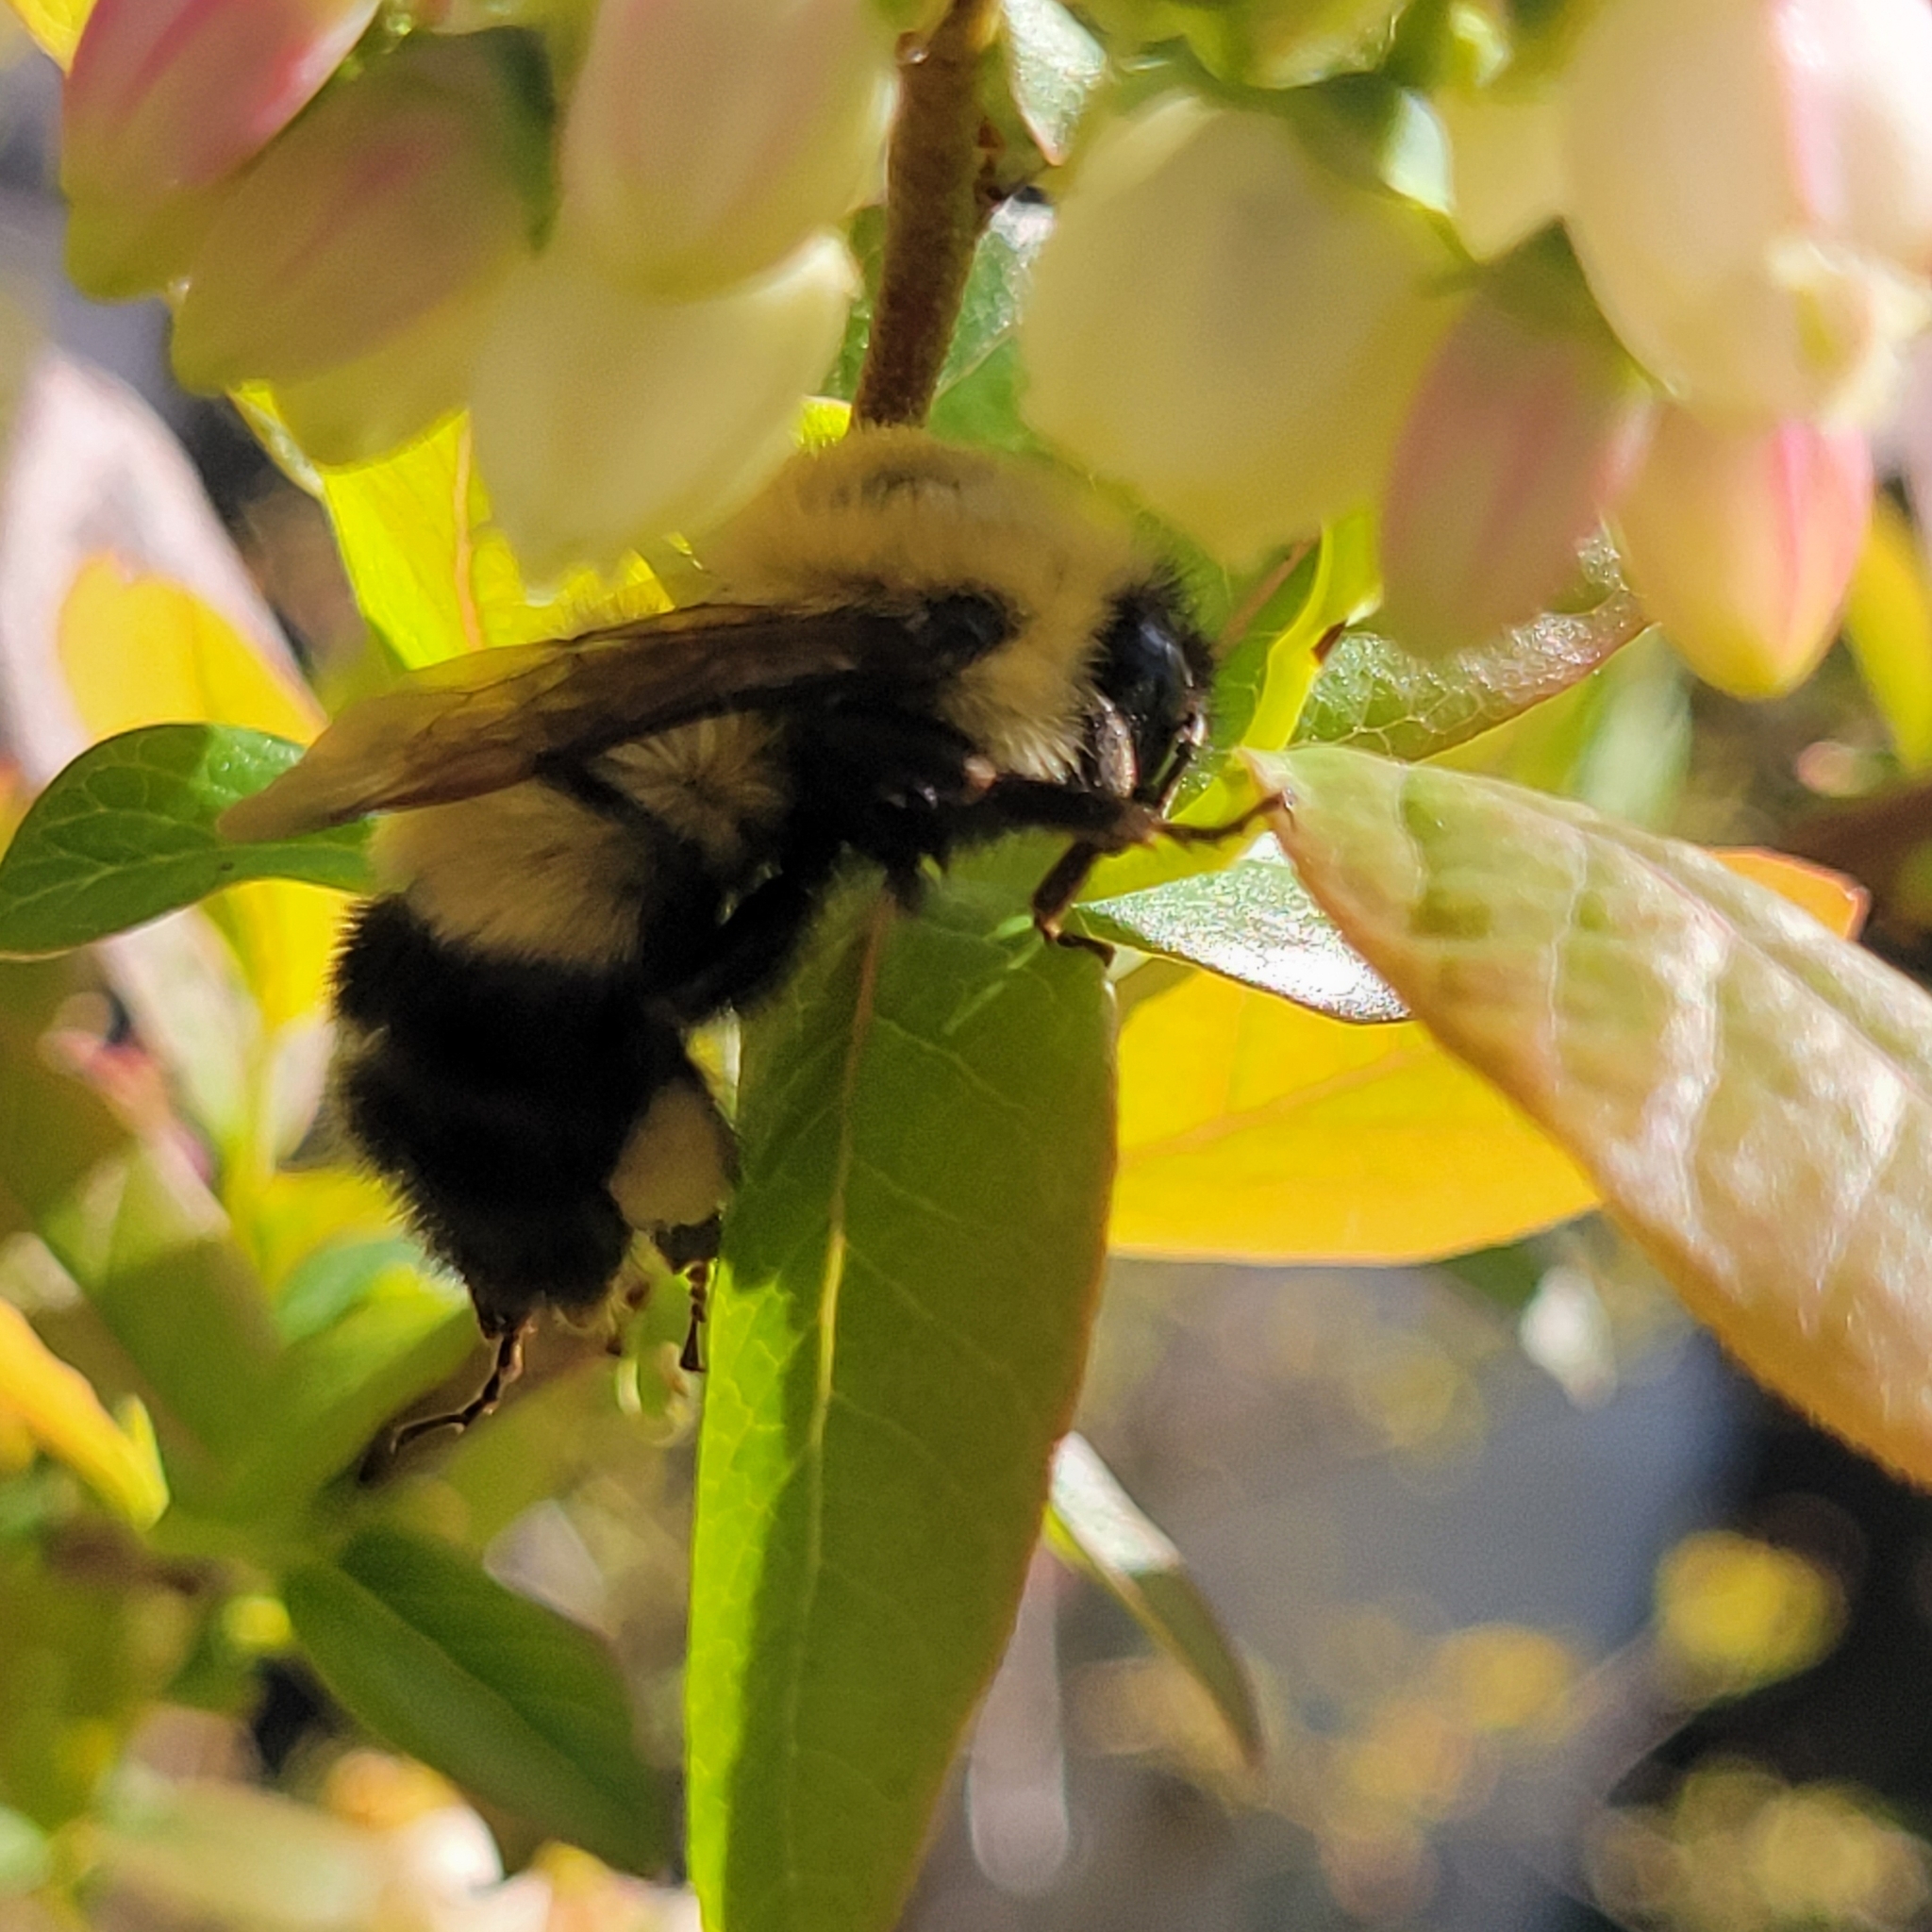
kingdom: Animalia
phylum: Arthropoda
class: Insecta
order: Hymenoptera
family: Apidae
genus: Bombus
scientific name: Bombus perplexus
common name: Confusing bumble bee
